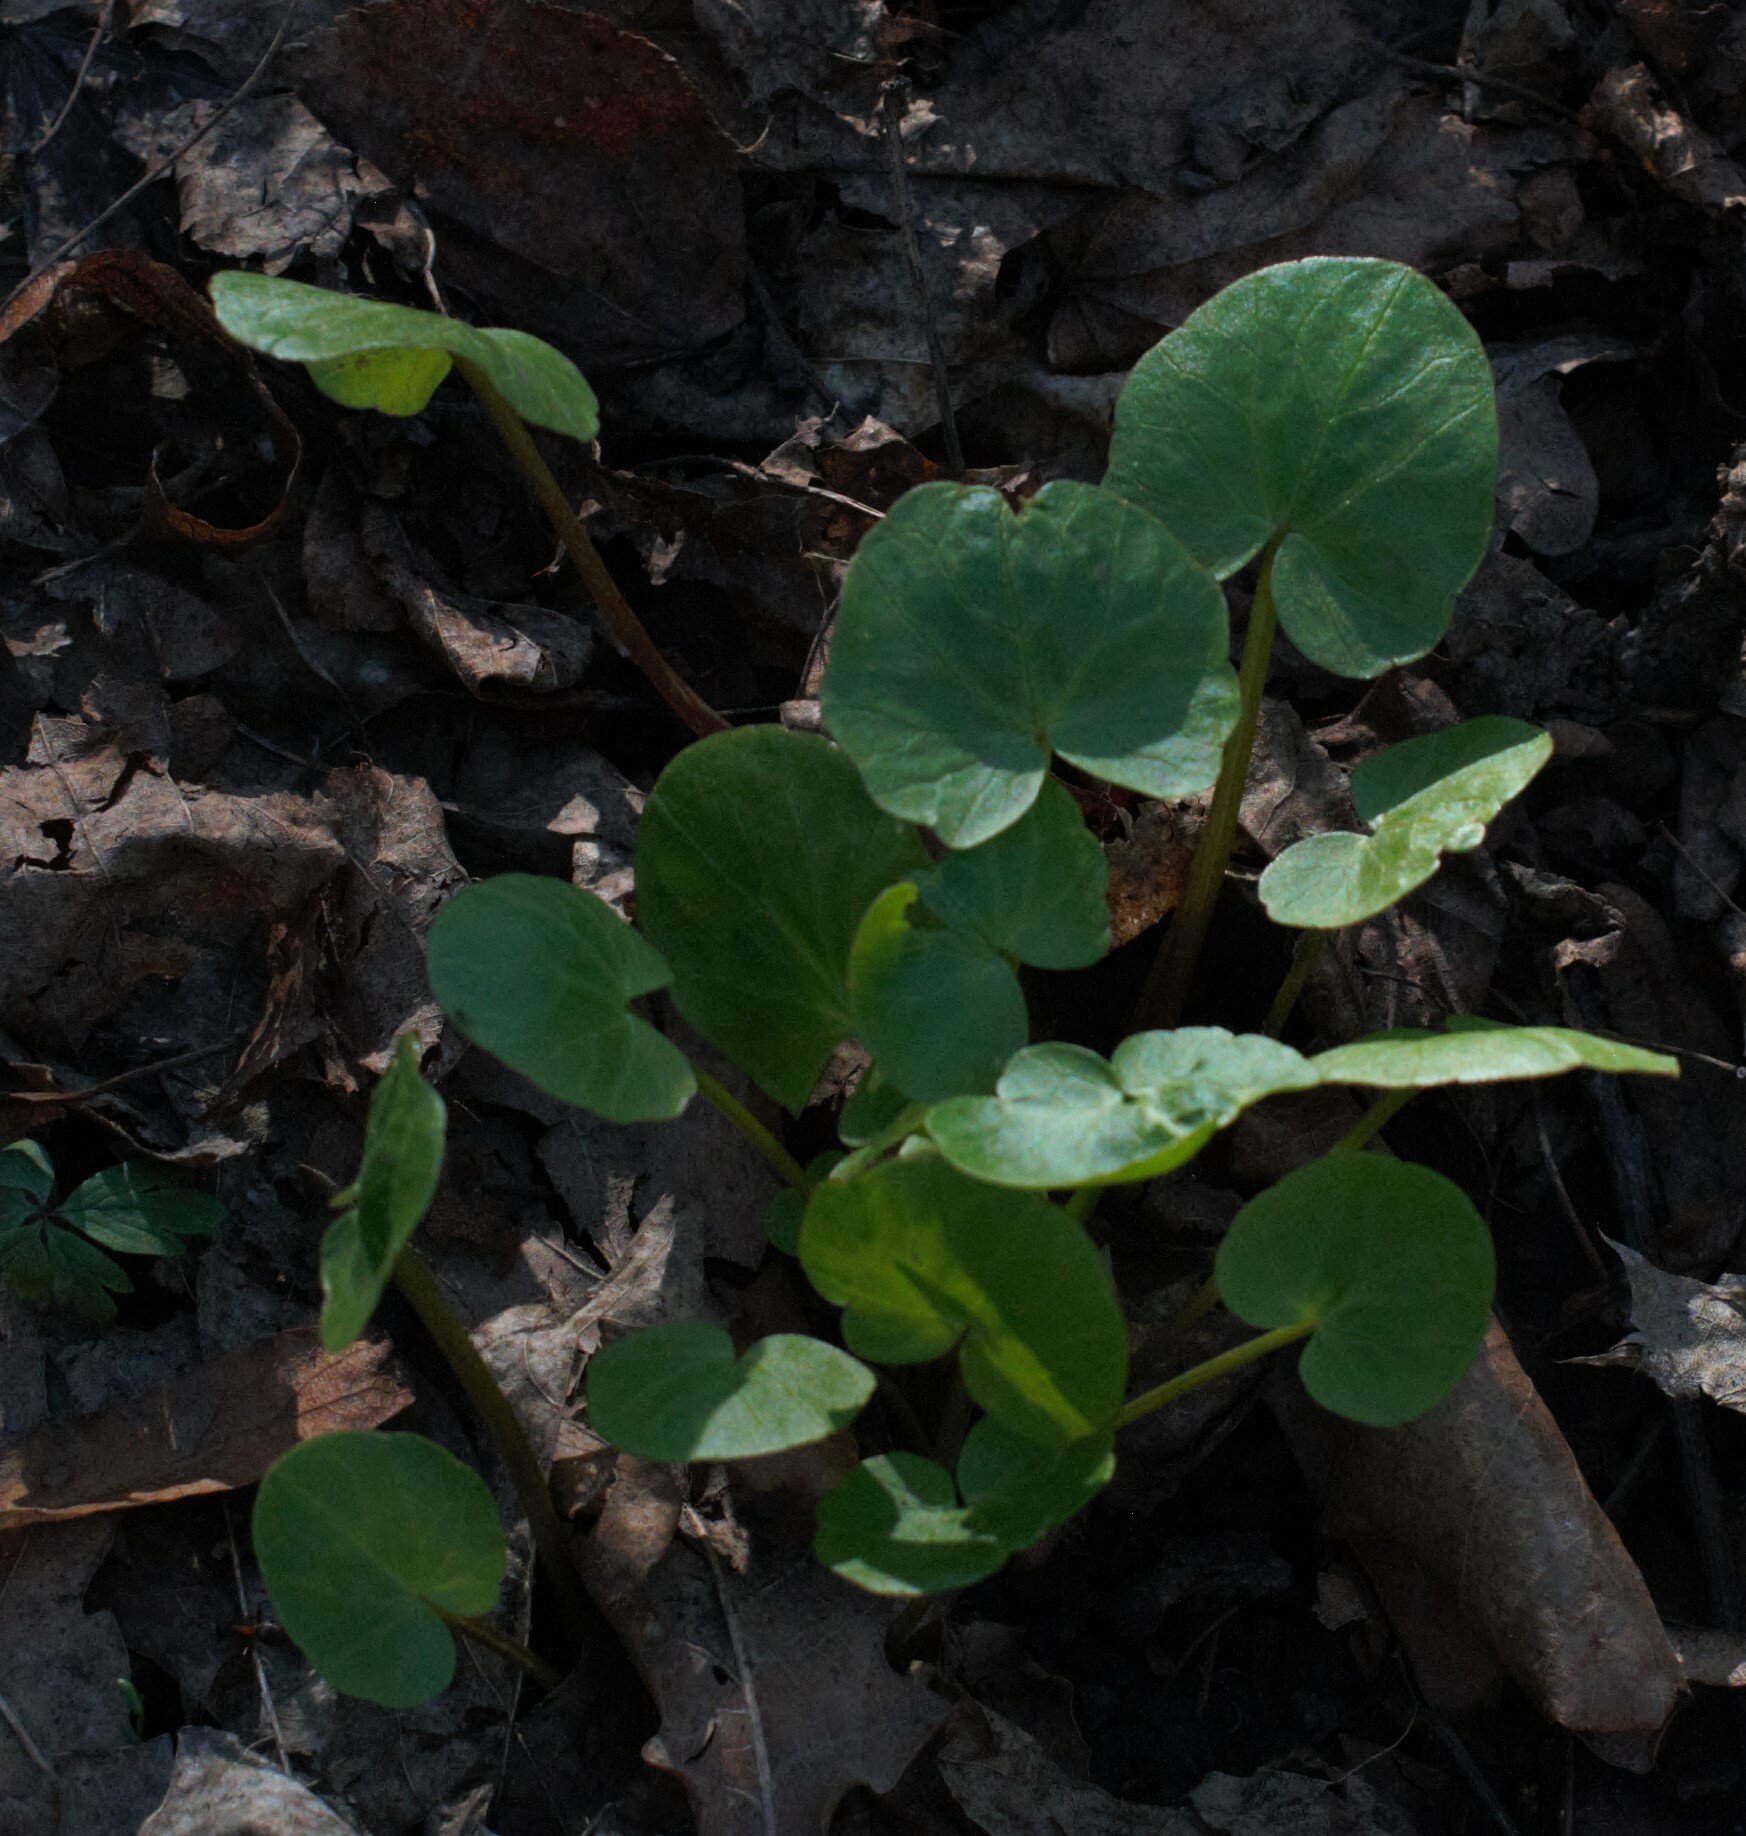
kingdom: Plantae
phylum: Tracheophyta
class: Magnoliopsida
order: Ranunculales
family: Ranunculaceae
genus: Ficaria
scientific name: Ficaria verna
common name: Lesser celandine
